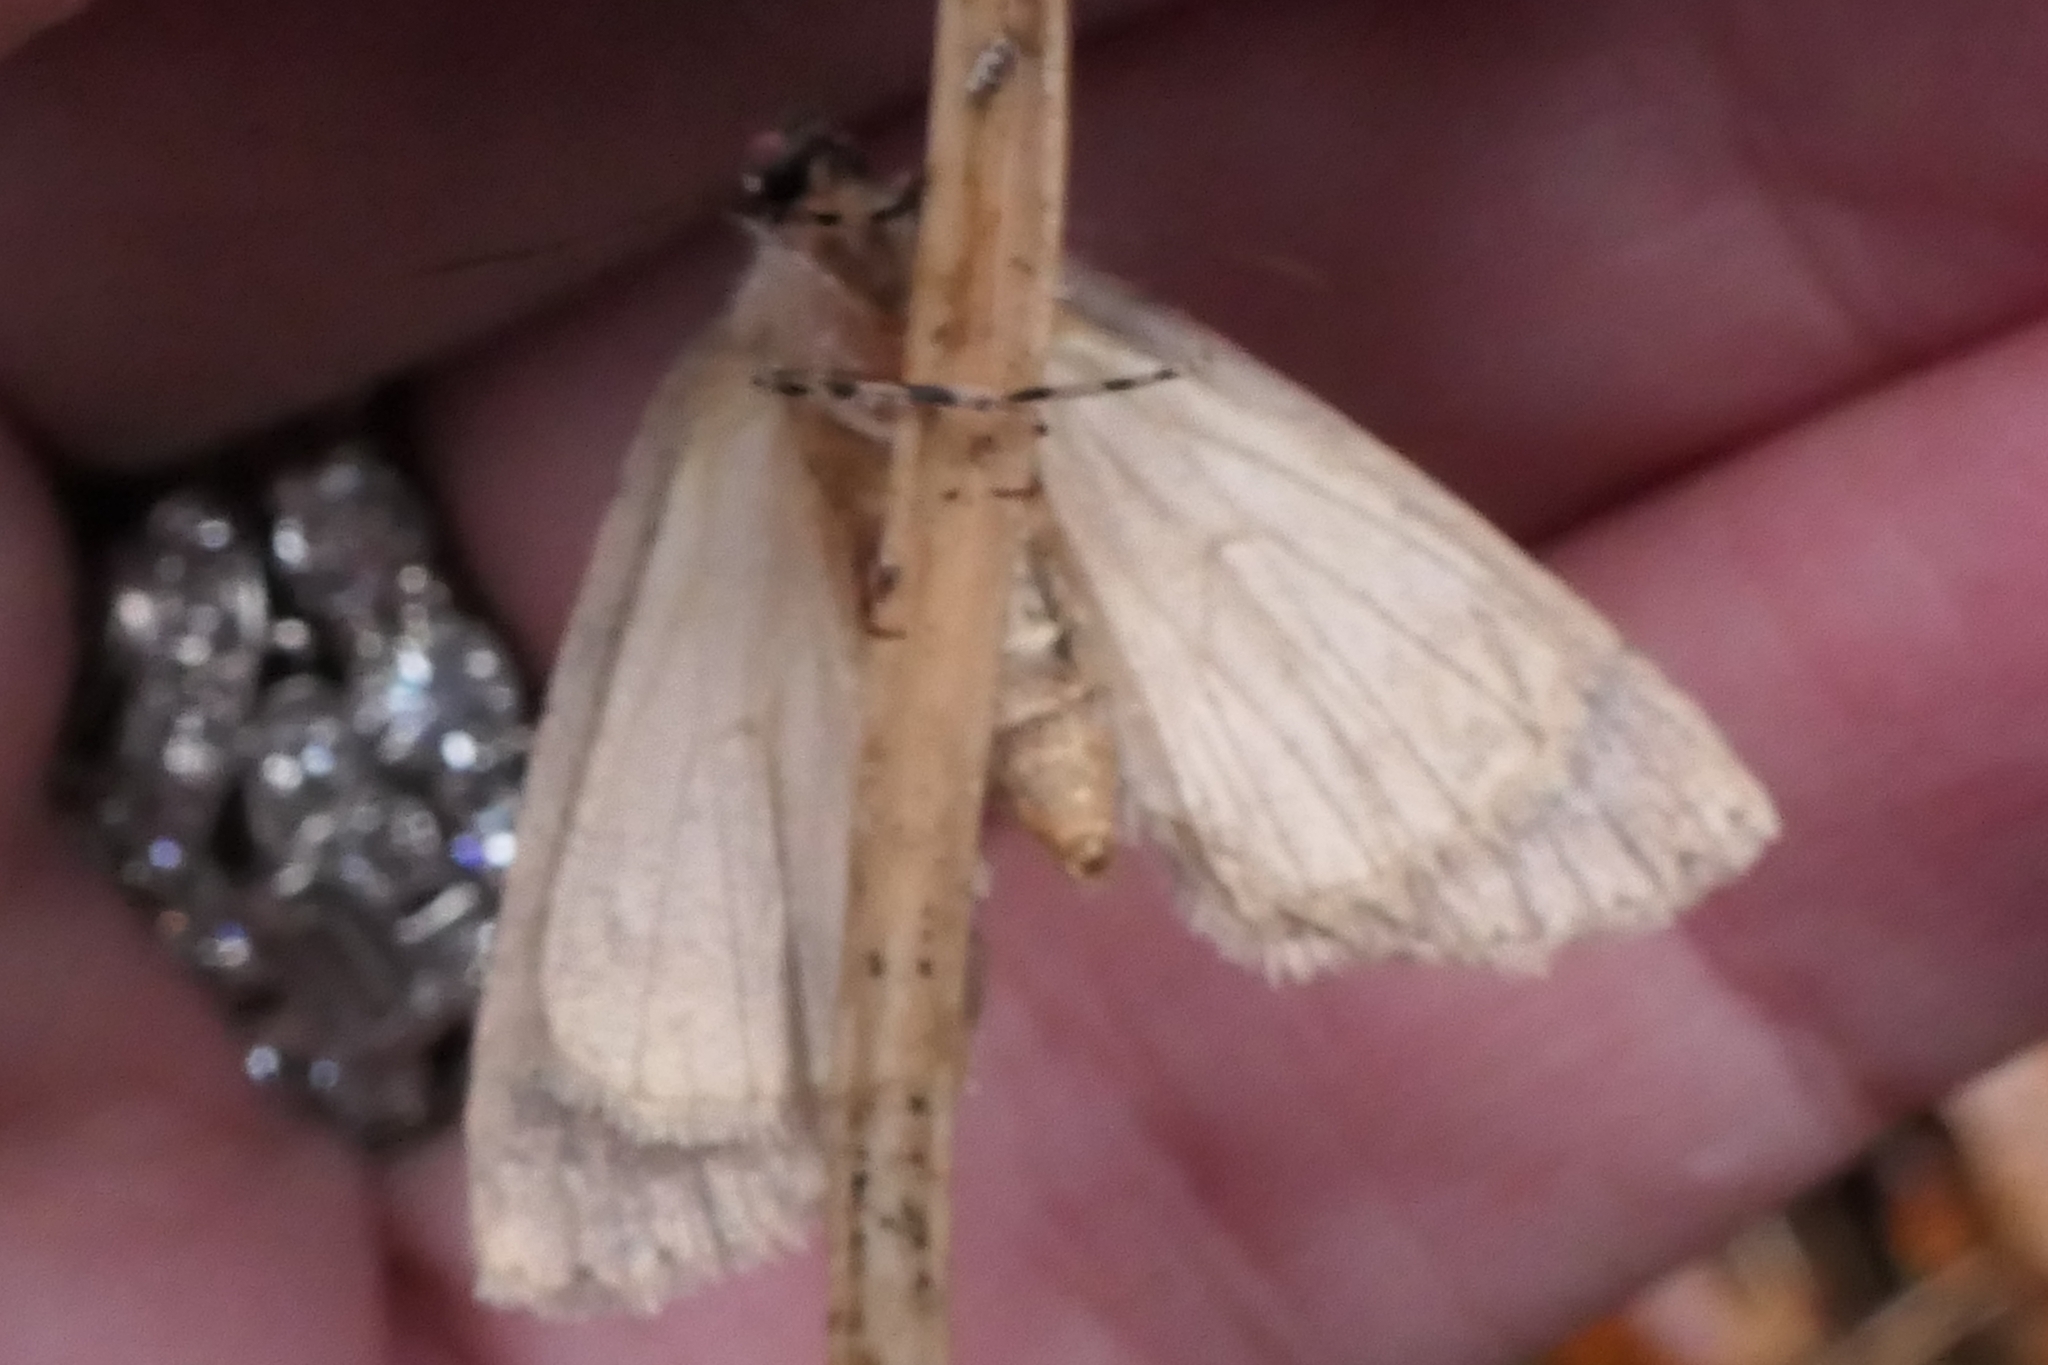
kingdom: Animalia
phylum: Arthropoda
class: Insecta
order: Lepidoptera
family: Geometridae
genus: Pseudocoremia
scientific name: Pseudocoremia suavis
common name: Common forest looper
